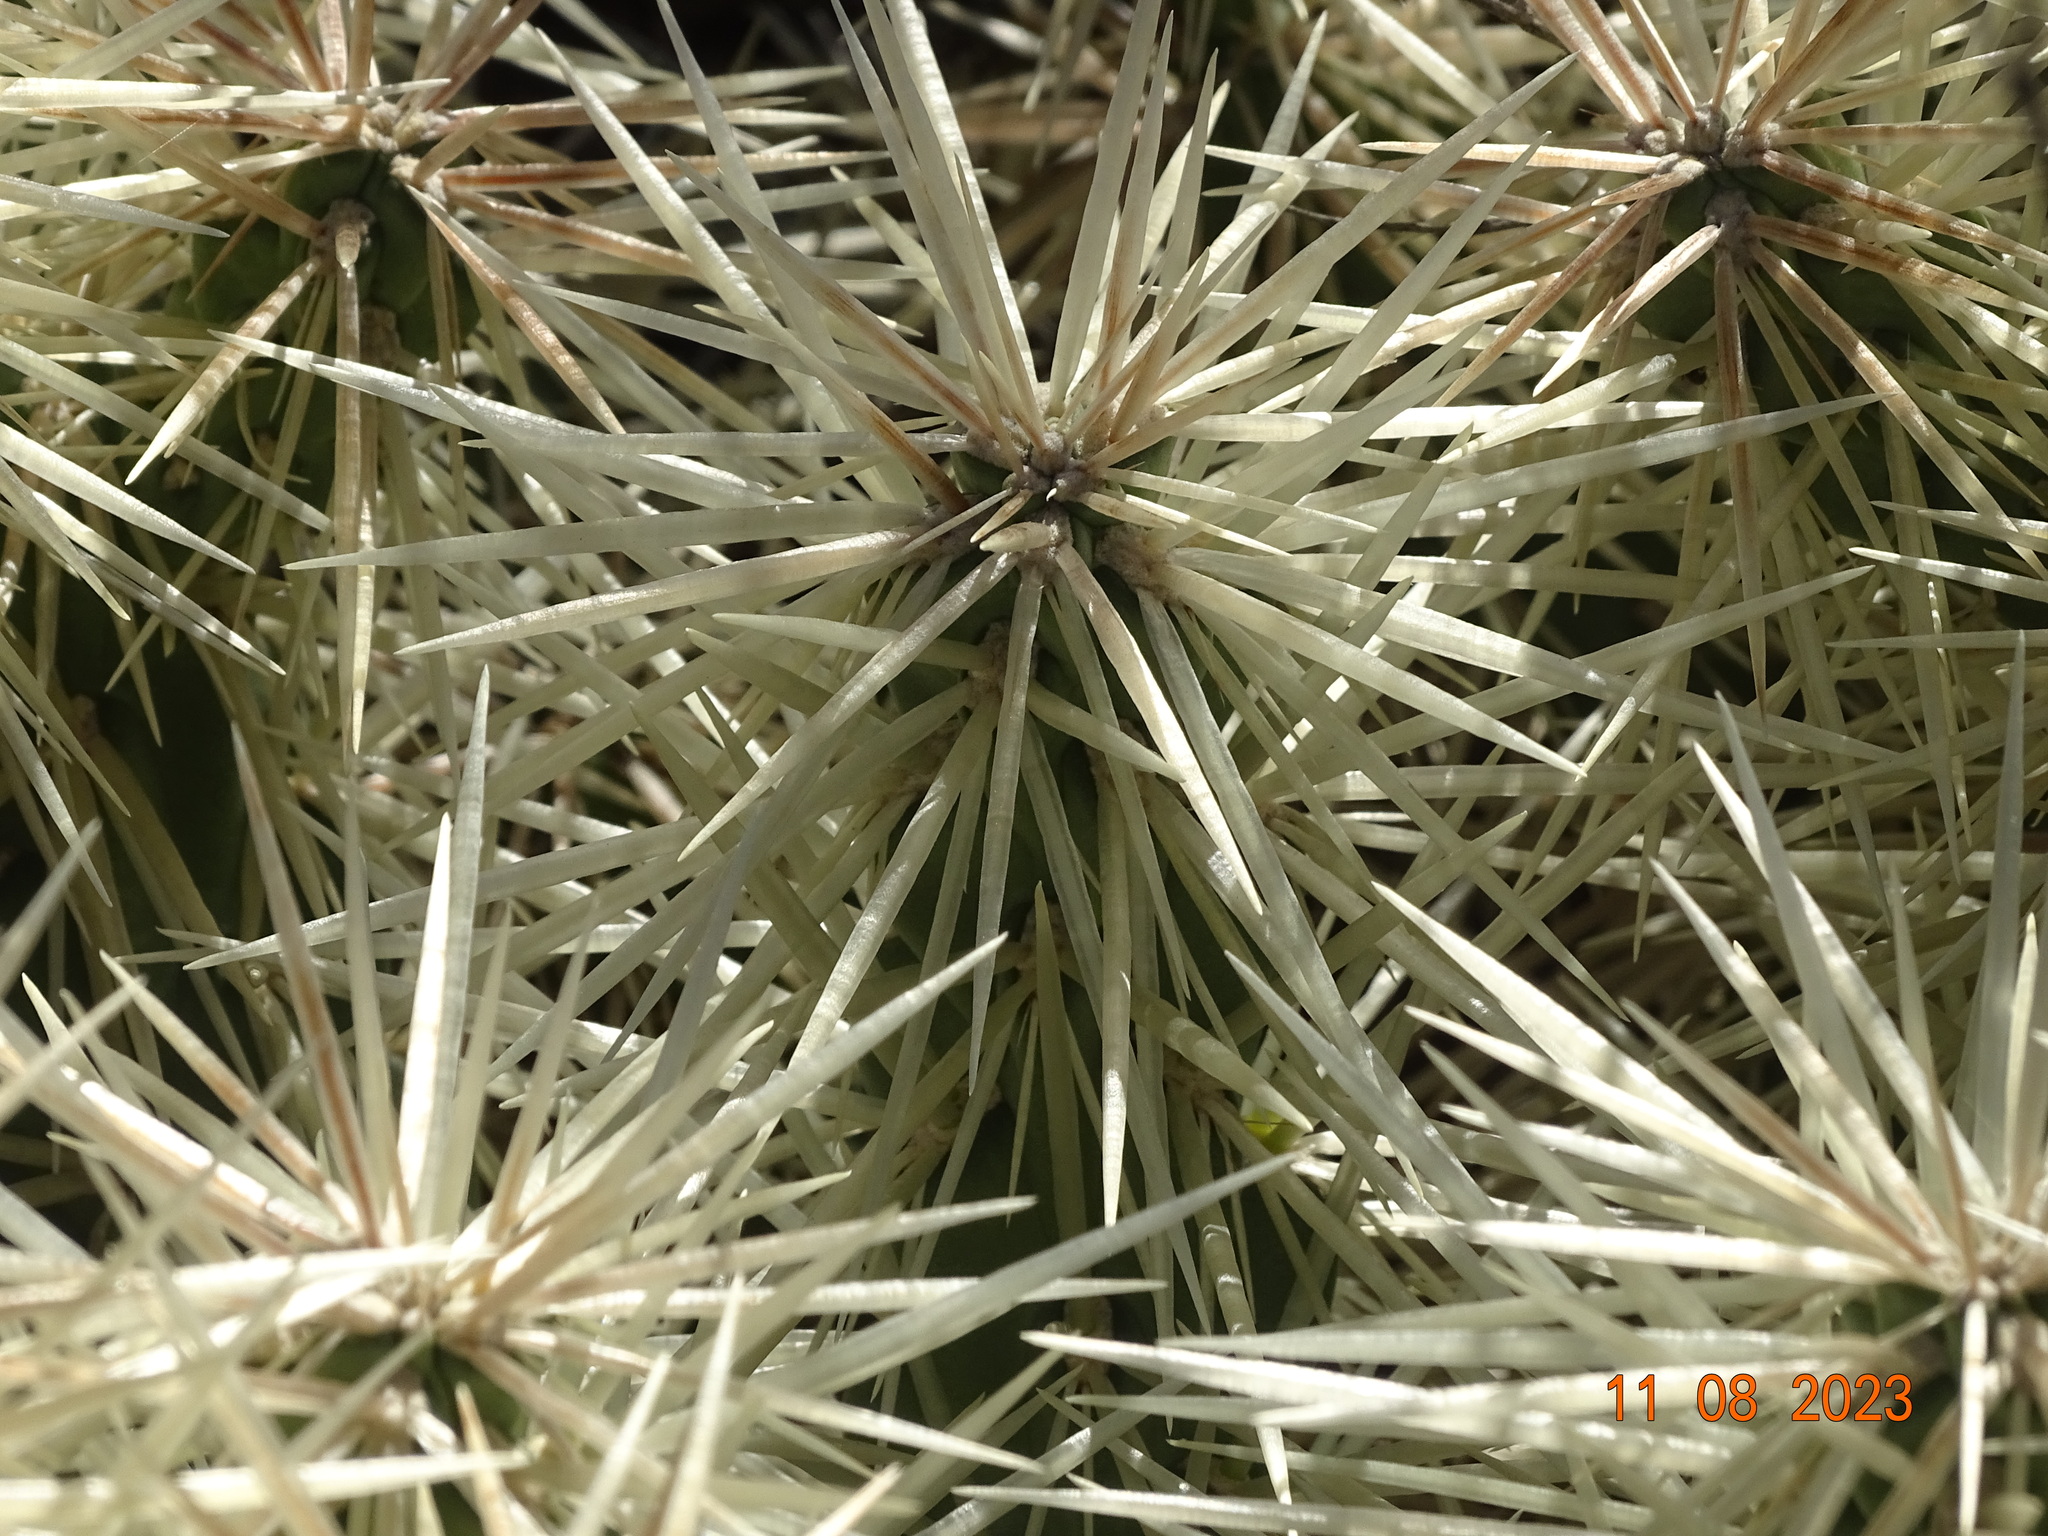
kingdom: Plantae
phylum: Tracheophyta
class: Magnoliopsida
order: Caryophyllales
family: Cactaceae
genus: Cylindropuntia
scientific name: Cylindropuntia tunicata
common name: Sheathed cholla
